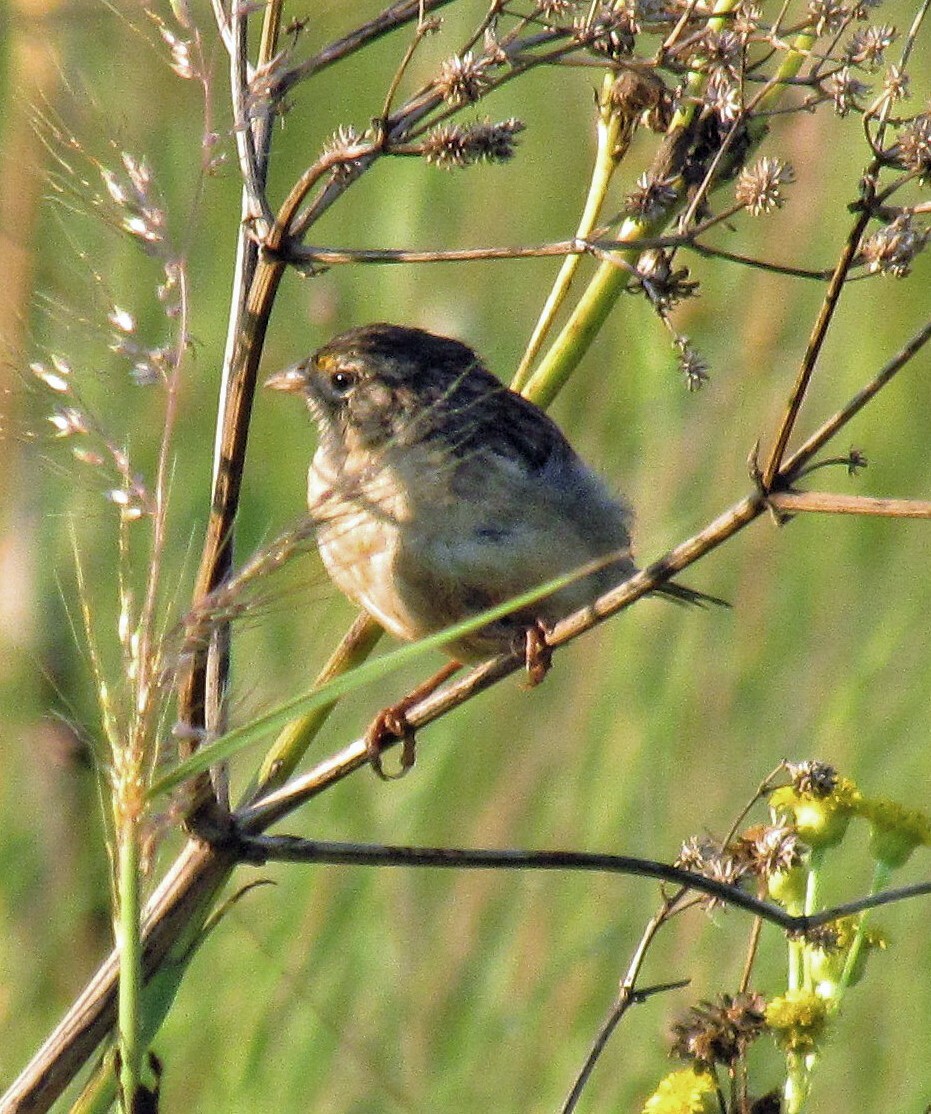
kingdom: Animalia
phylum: Chordata
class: Aves
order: Passeriformes
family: Passerellidae
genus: Ammodramus
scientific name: Ammodramus humeralis
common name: Grassland sparrow
